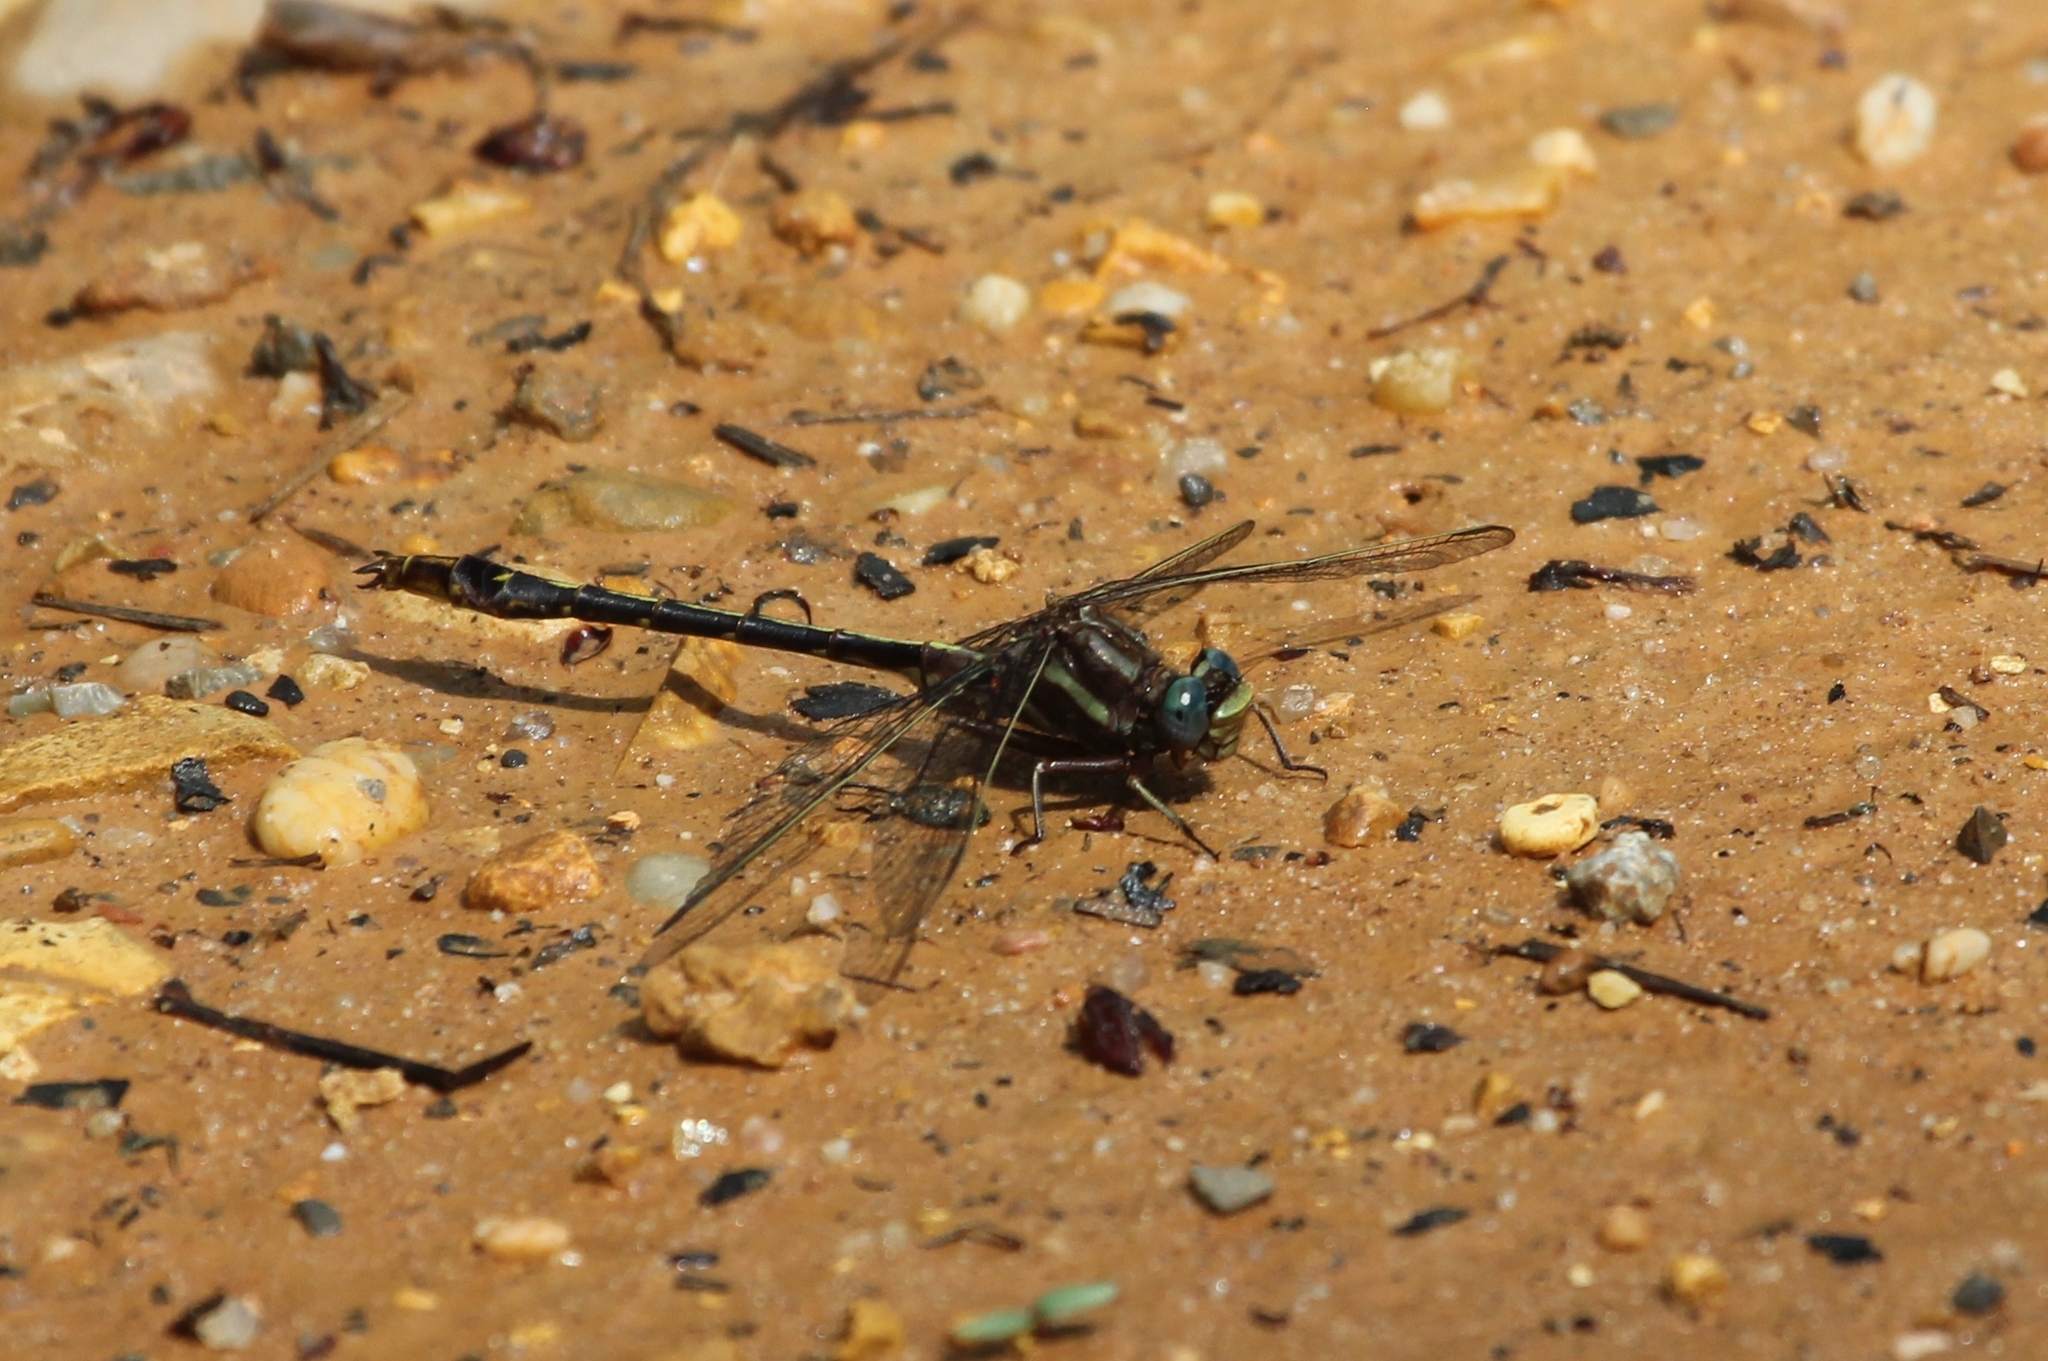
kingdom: Animalia
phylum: Arthropoda
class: Insecta
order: Odonata
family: Gomphidae
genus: Phanogomphus
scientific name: Phanogomphus lividus
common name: Ashy clubtail
